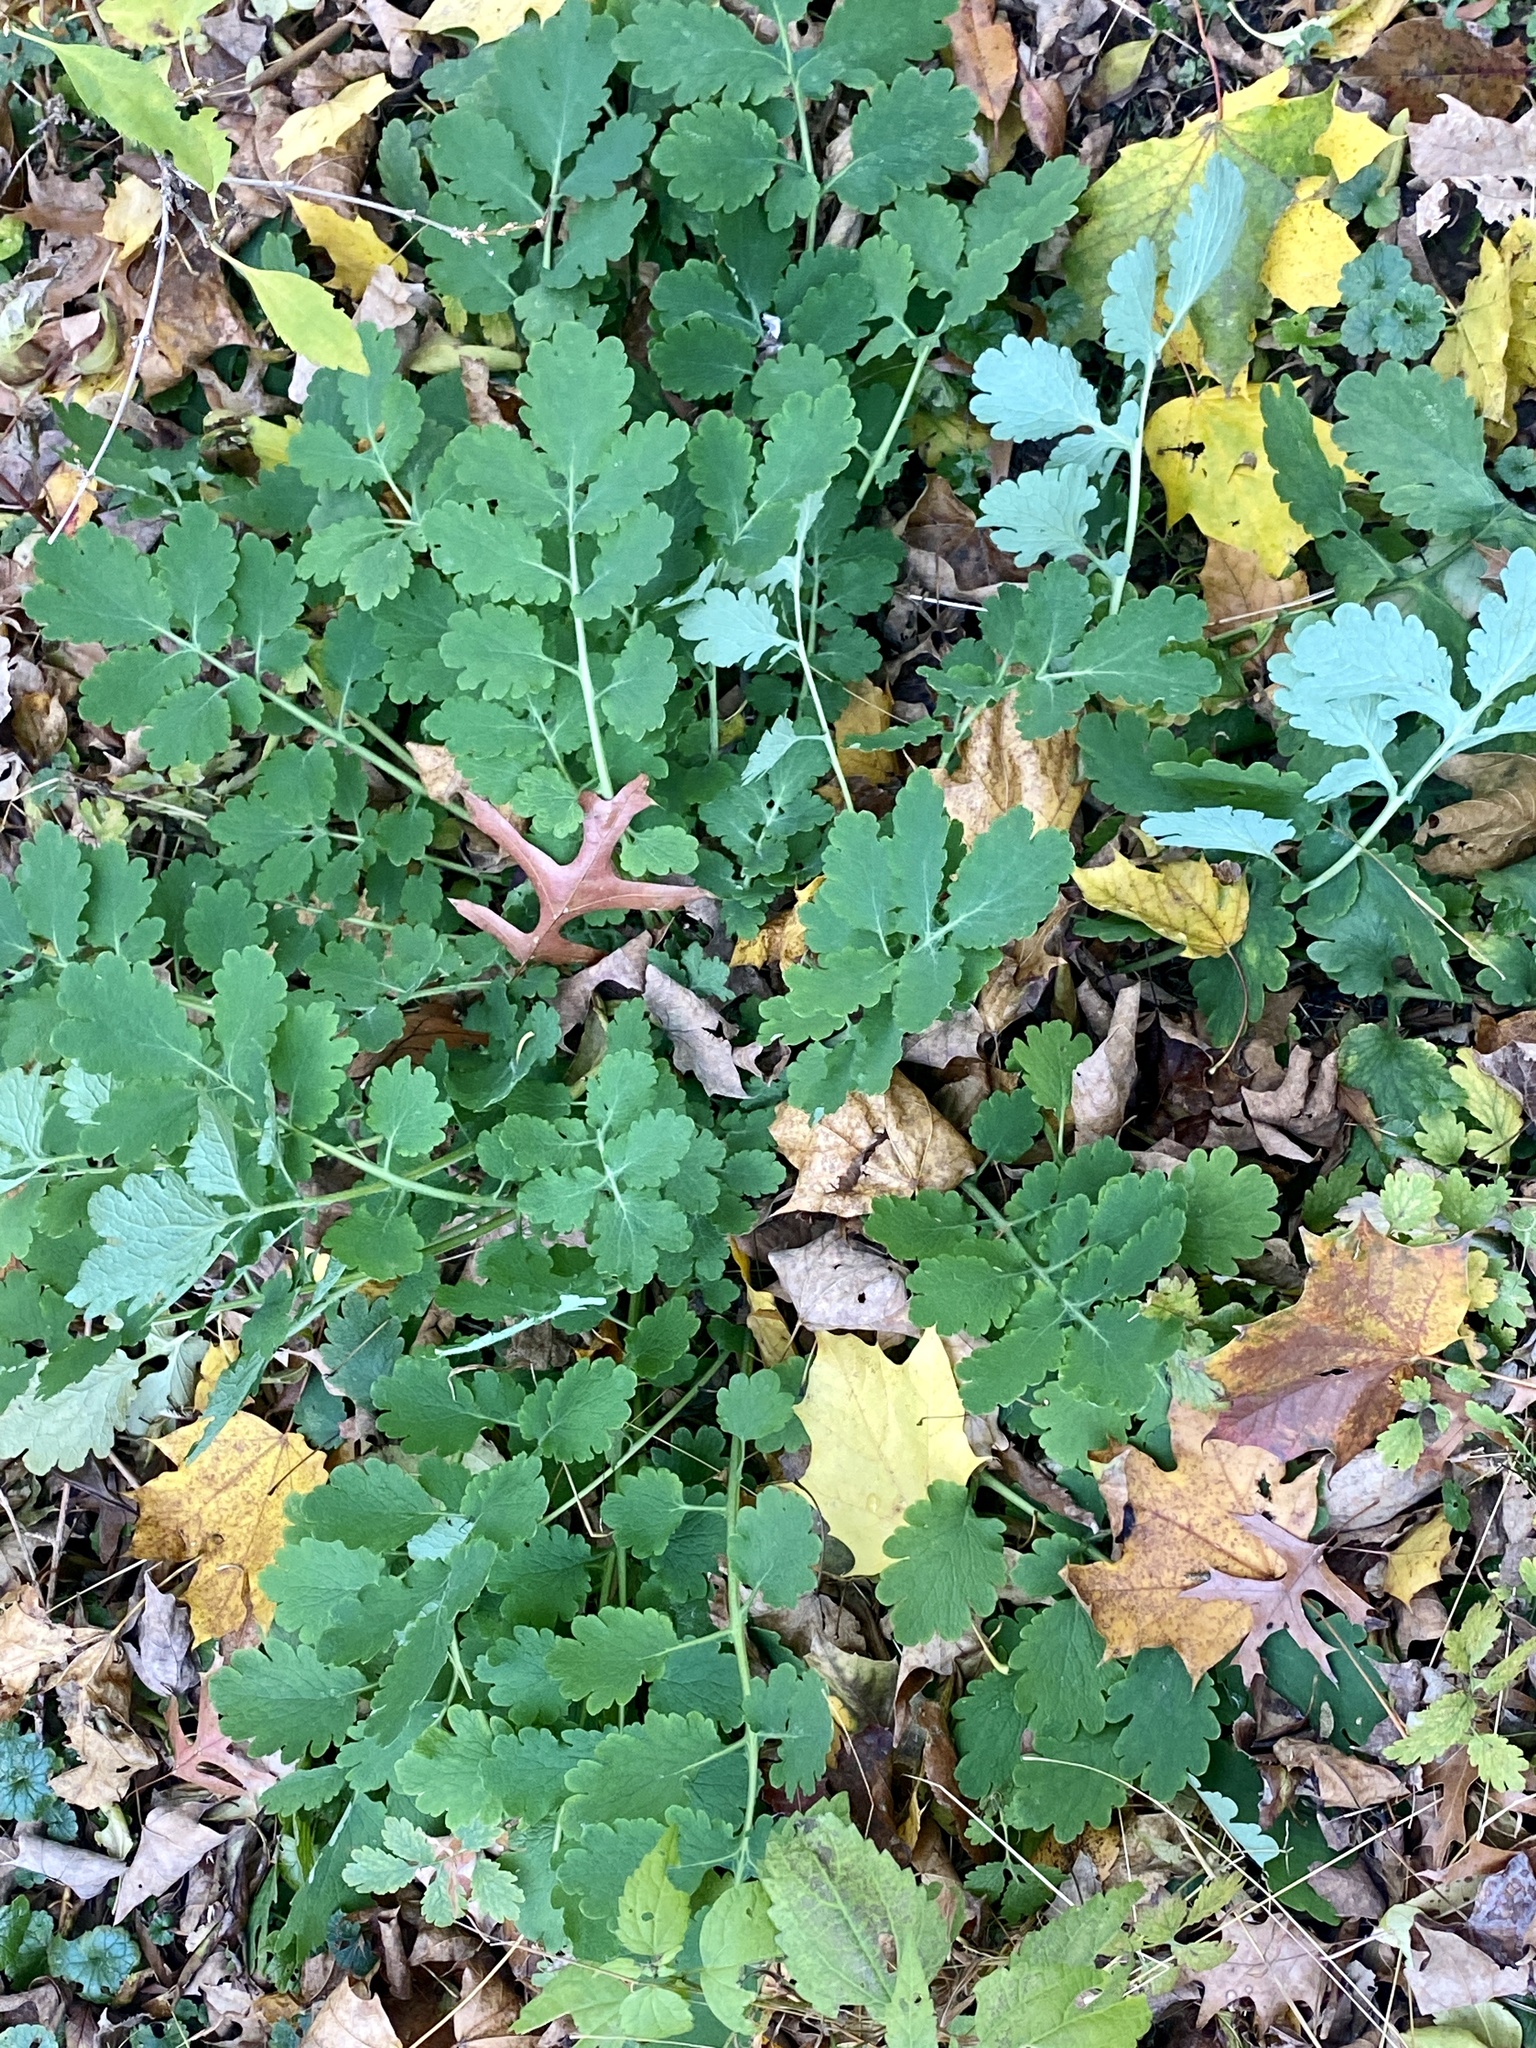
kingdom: Plantae
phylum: Tracheophyta
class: Magnoliopsida
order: Ranunculales
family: Papaveraceae
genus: Chelidonium
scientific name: Chelidonium majus
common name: Greater celandine
